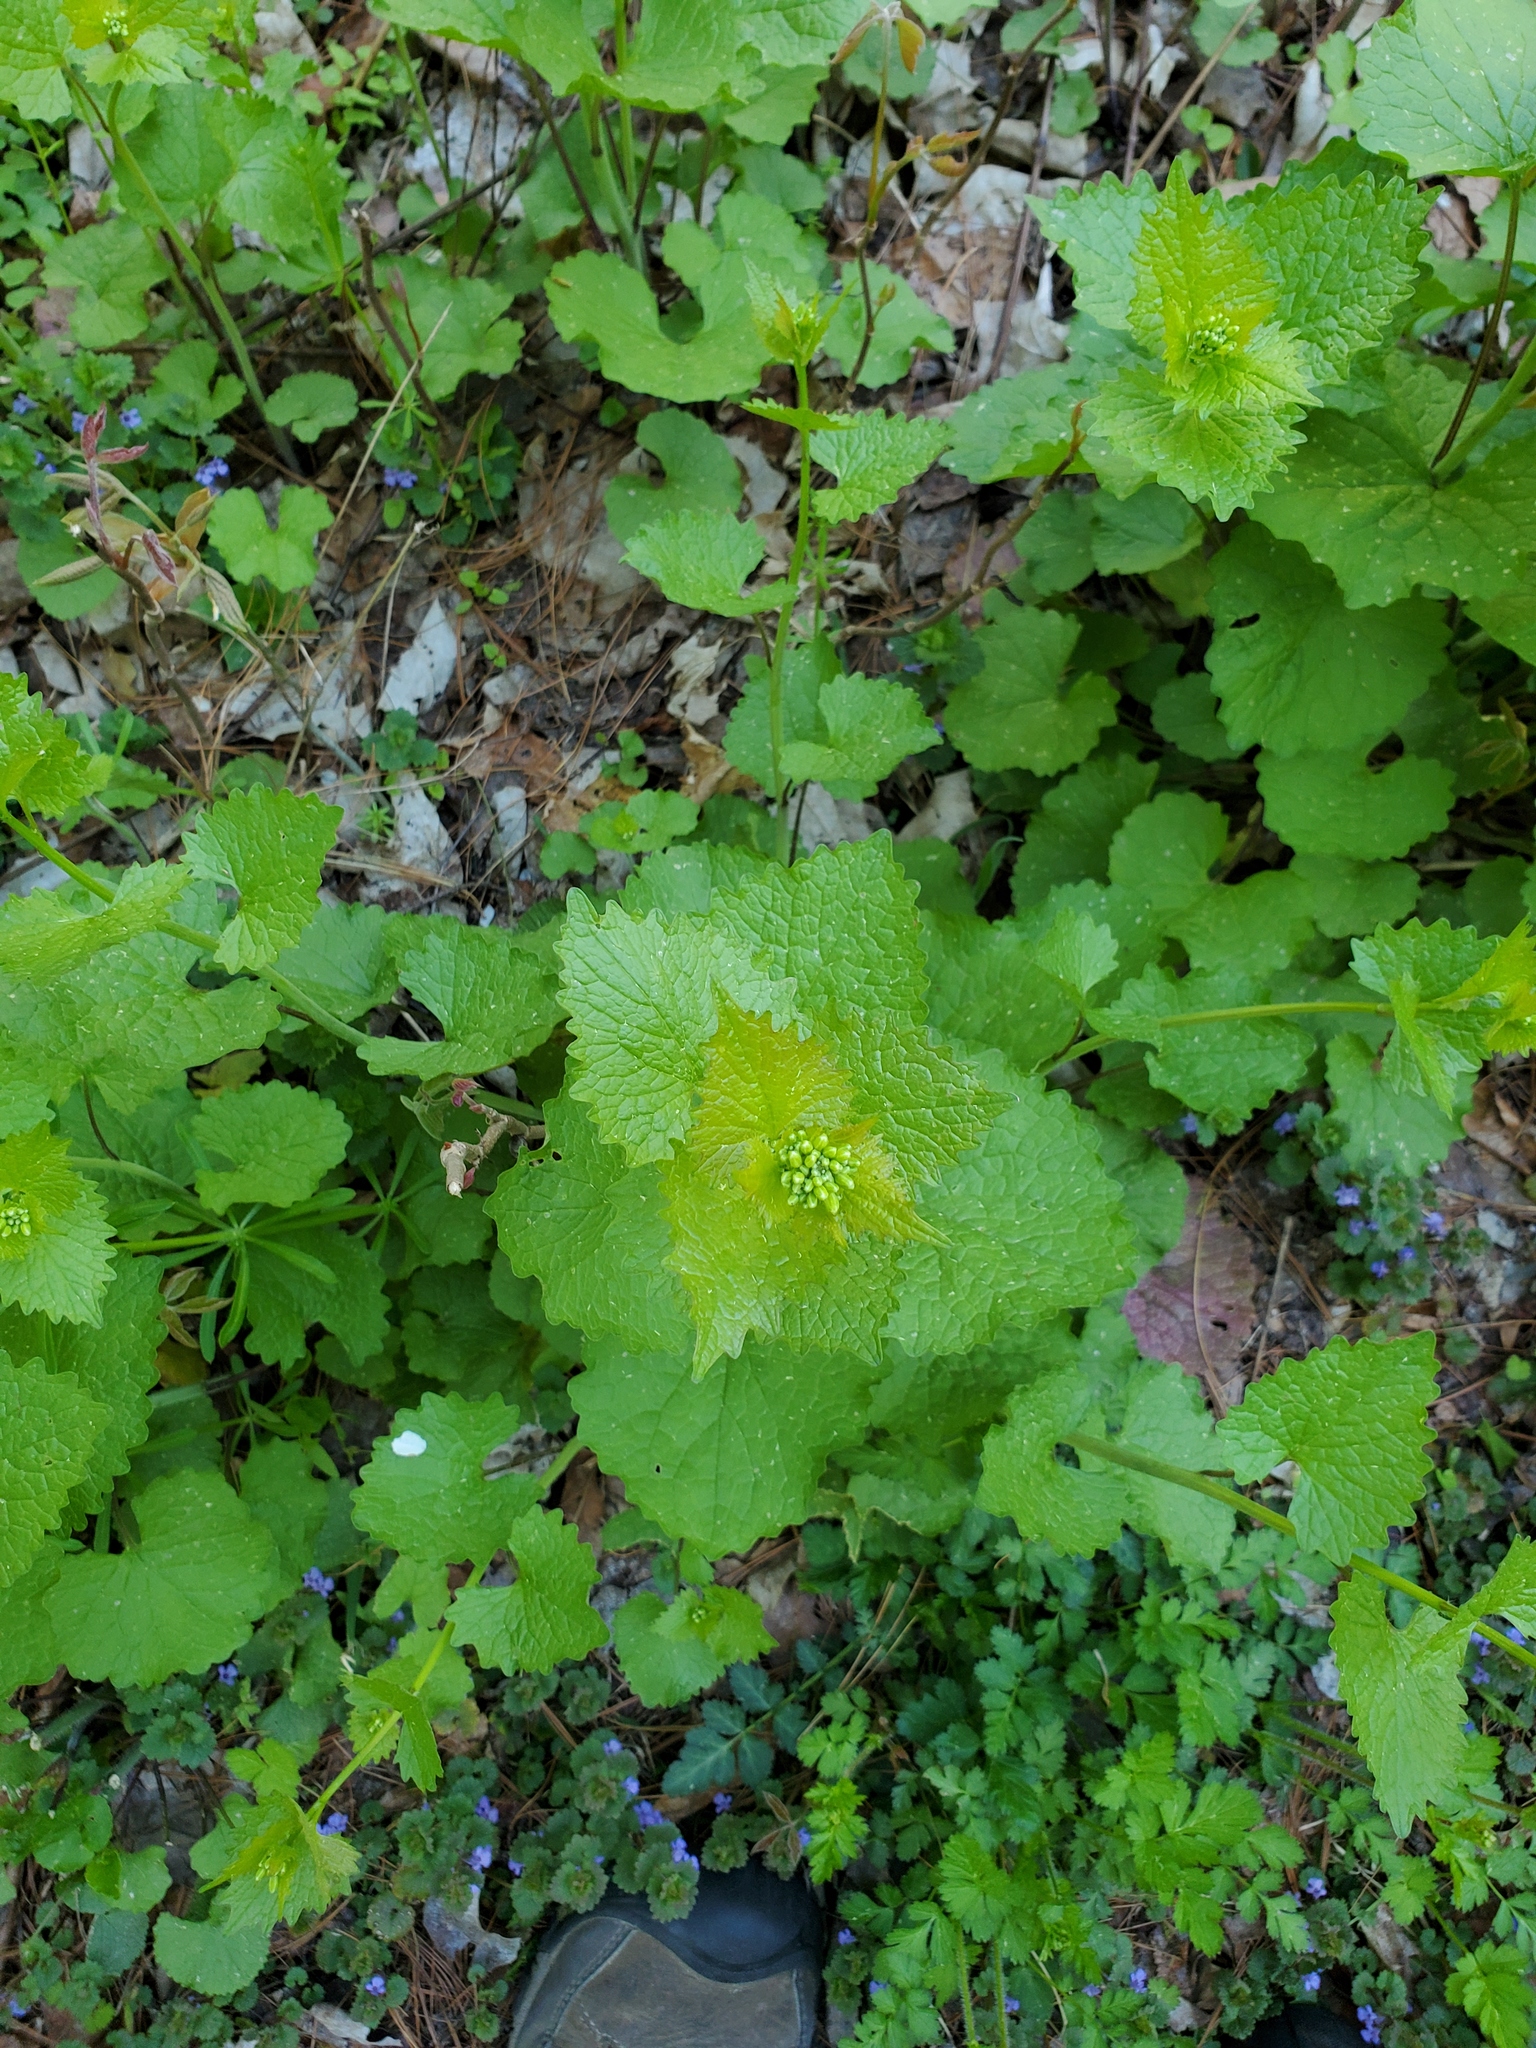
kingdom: Plantae
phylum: Tracheophyta
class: Magnoliopsida
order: Brassicales
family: Brassicaceae
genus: Alliaria
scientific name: Alliaria petiolata
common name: Garlic mustard
